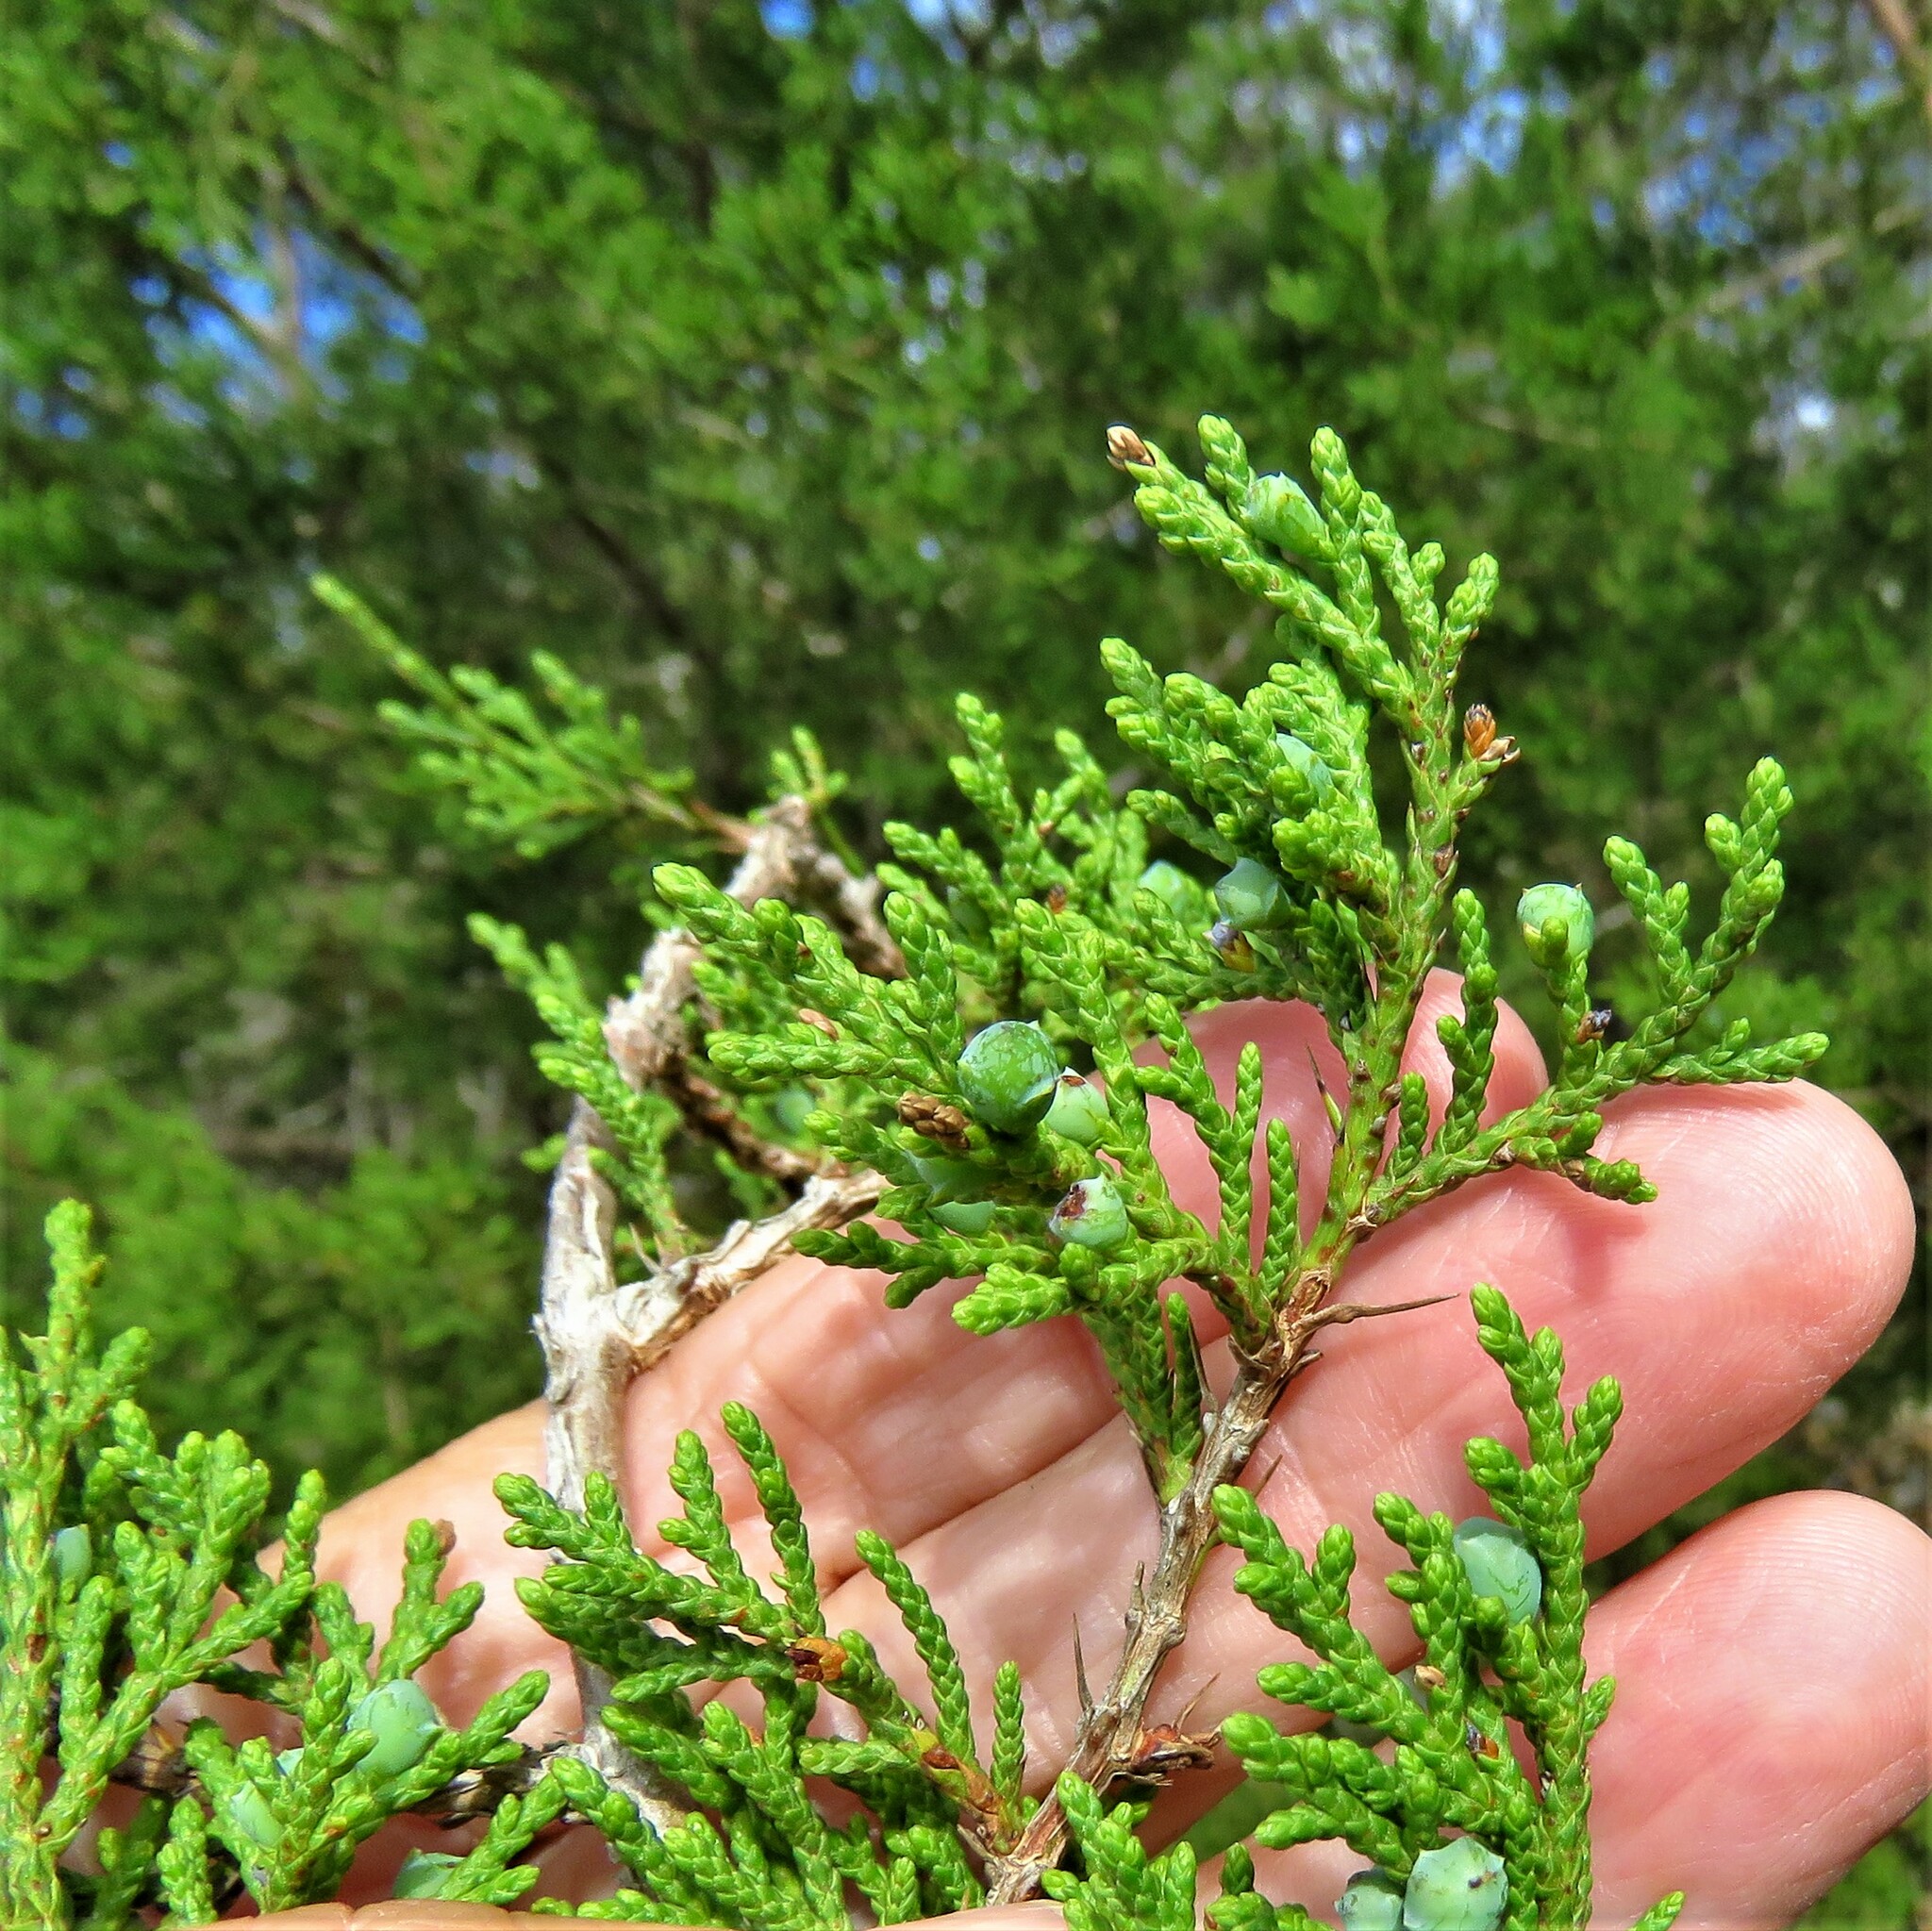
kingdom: Plantae
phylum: Tracheophyta
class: Pinopsida
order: Pinales
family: Cupressaceae
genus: Juniperus
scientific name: Juniperus ashei
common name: Mexican juniper
